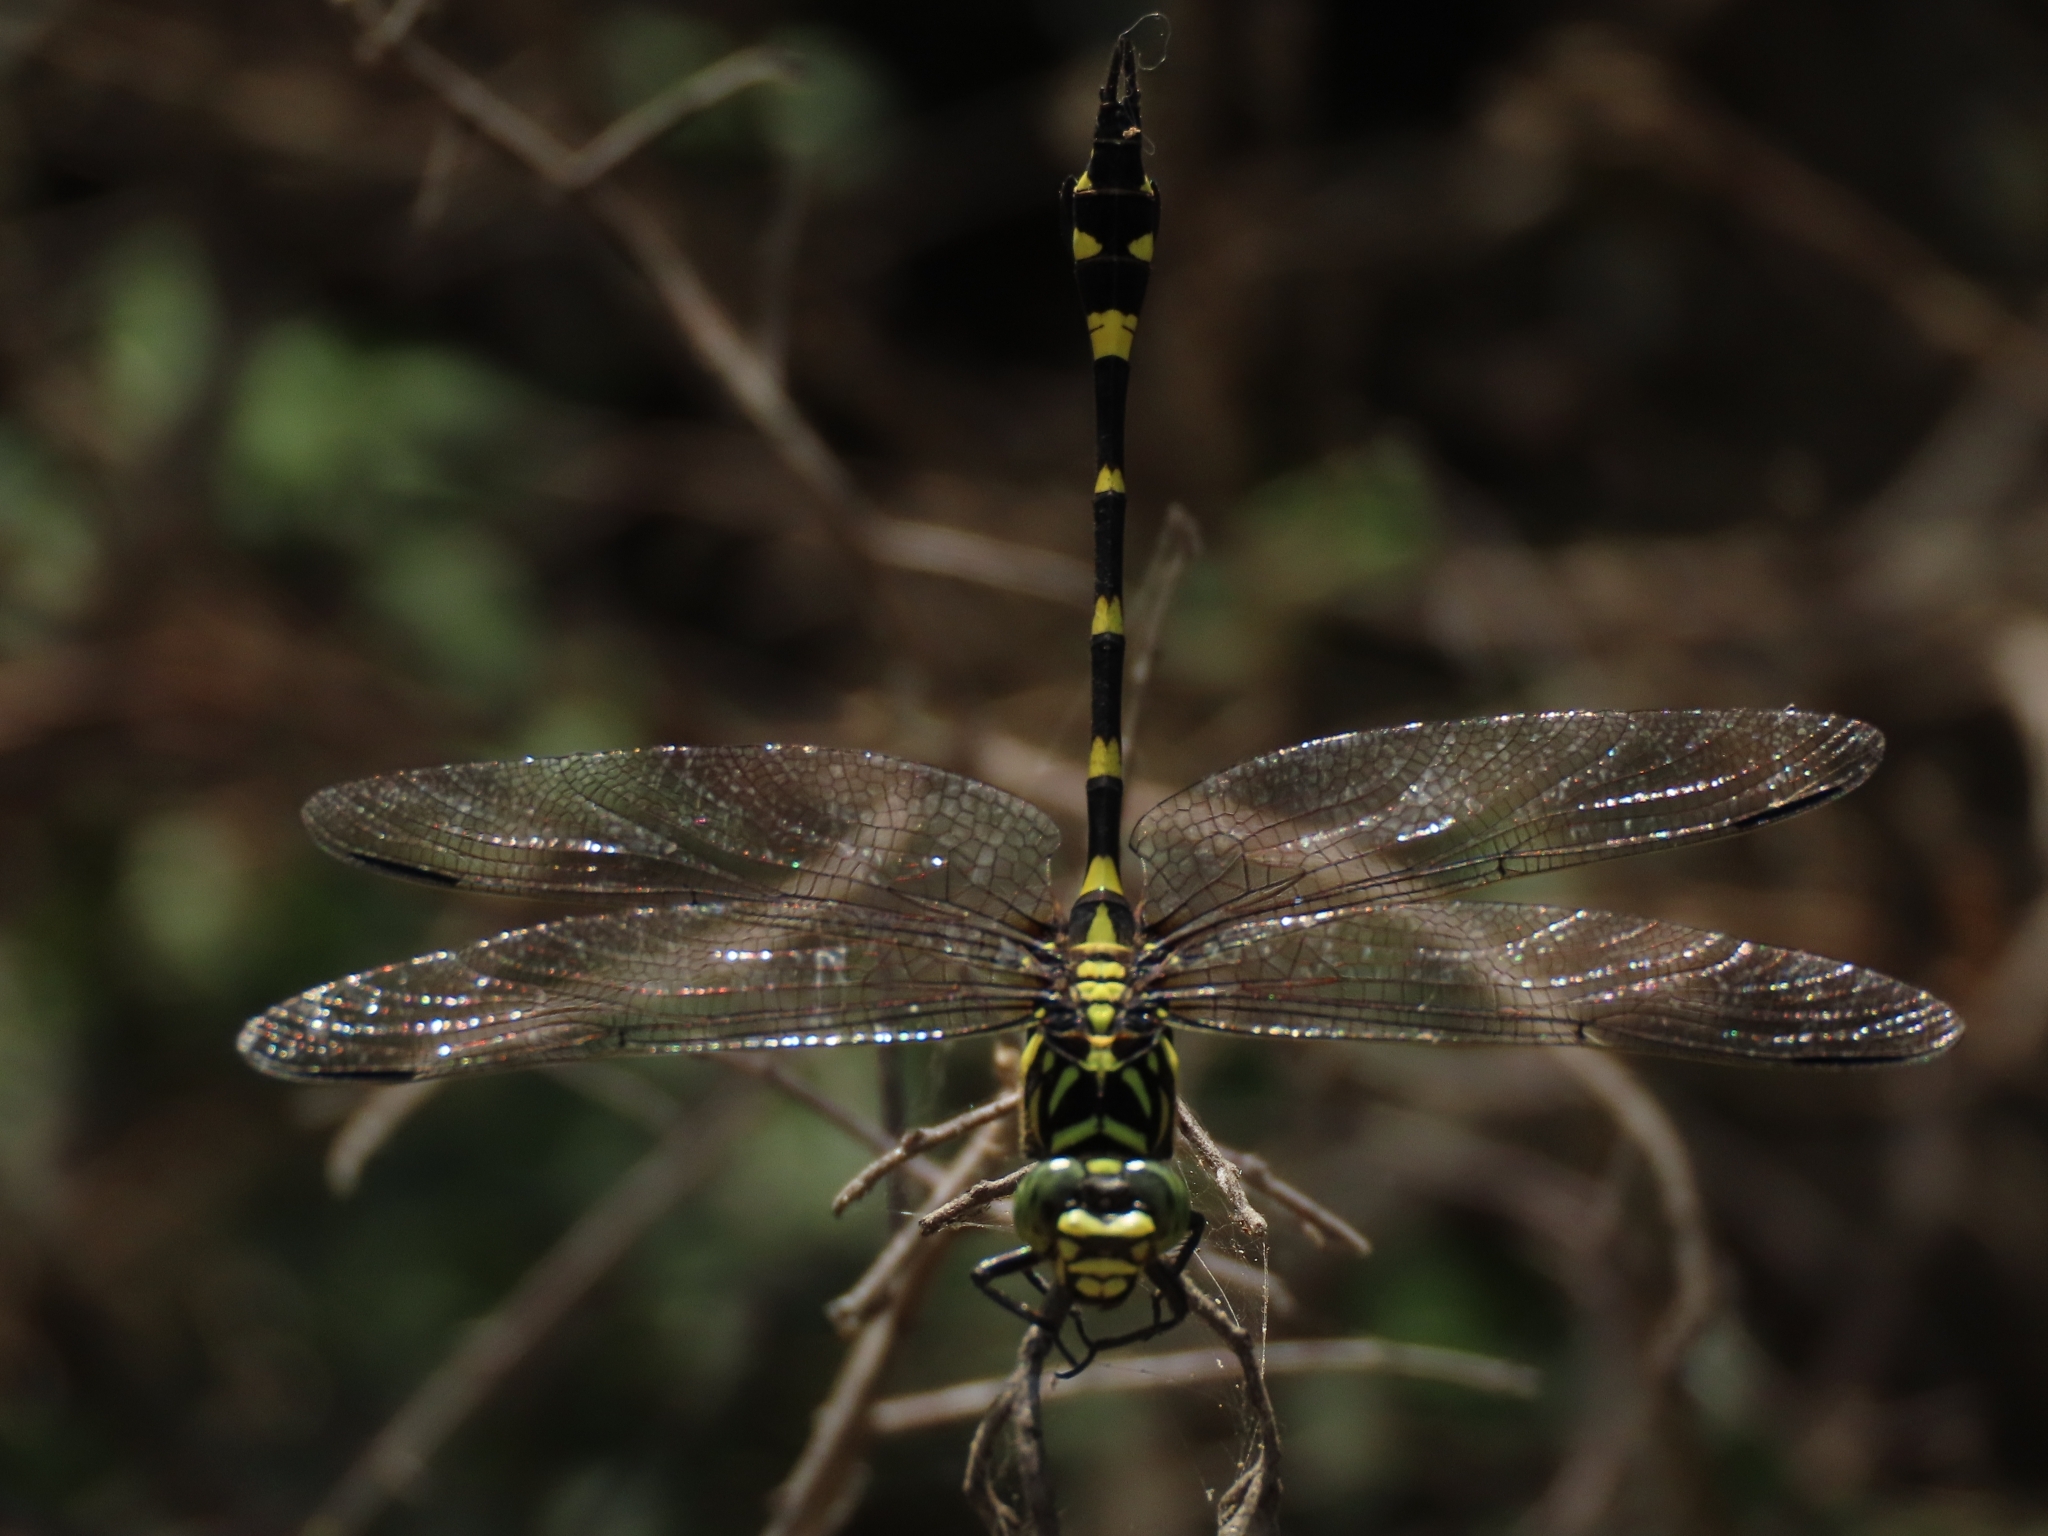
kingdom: Animalia
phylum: Arthropoda
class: Insecta
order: Odonata
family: Gomphidae
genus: Ictinogomphus
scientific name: Ictinogomphus rapax
